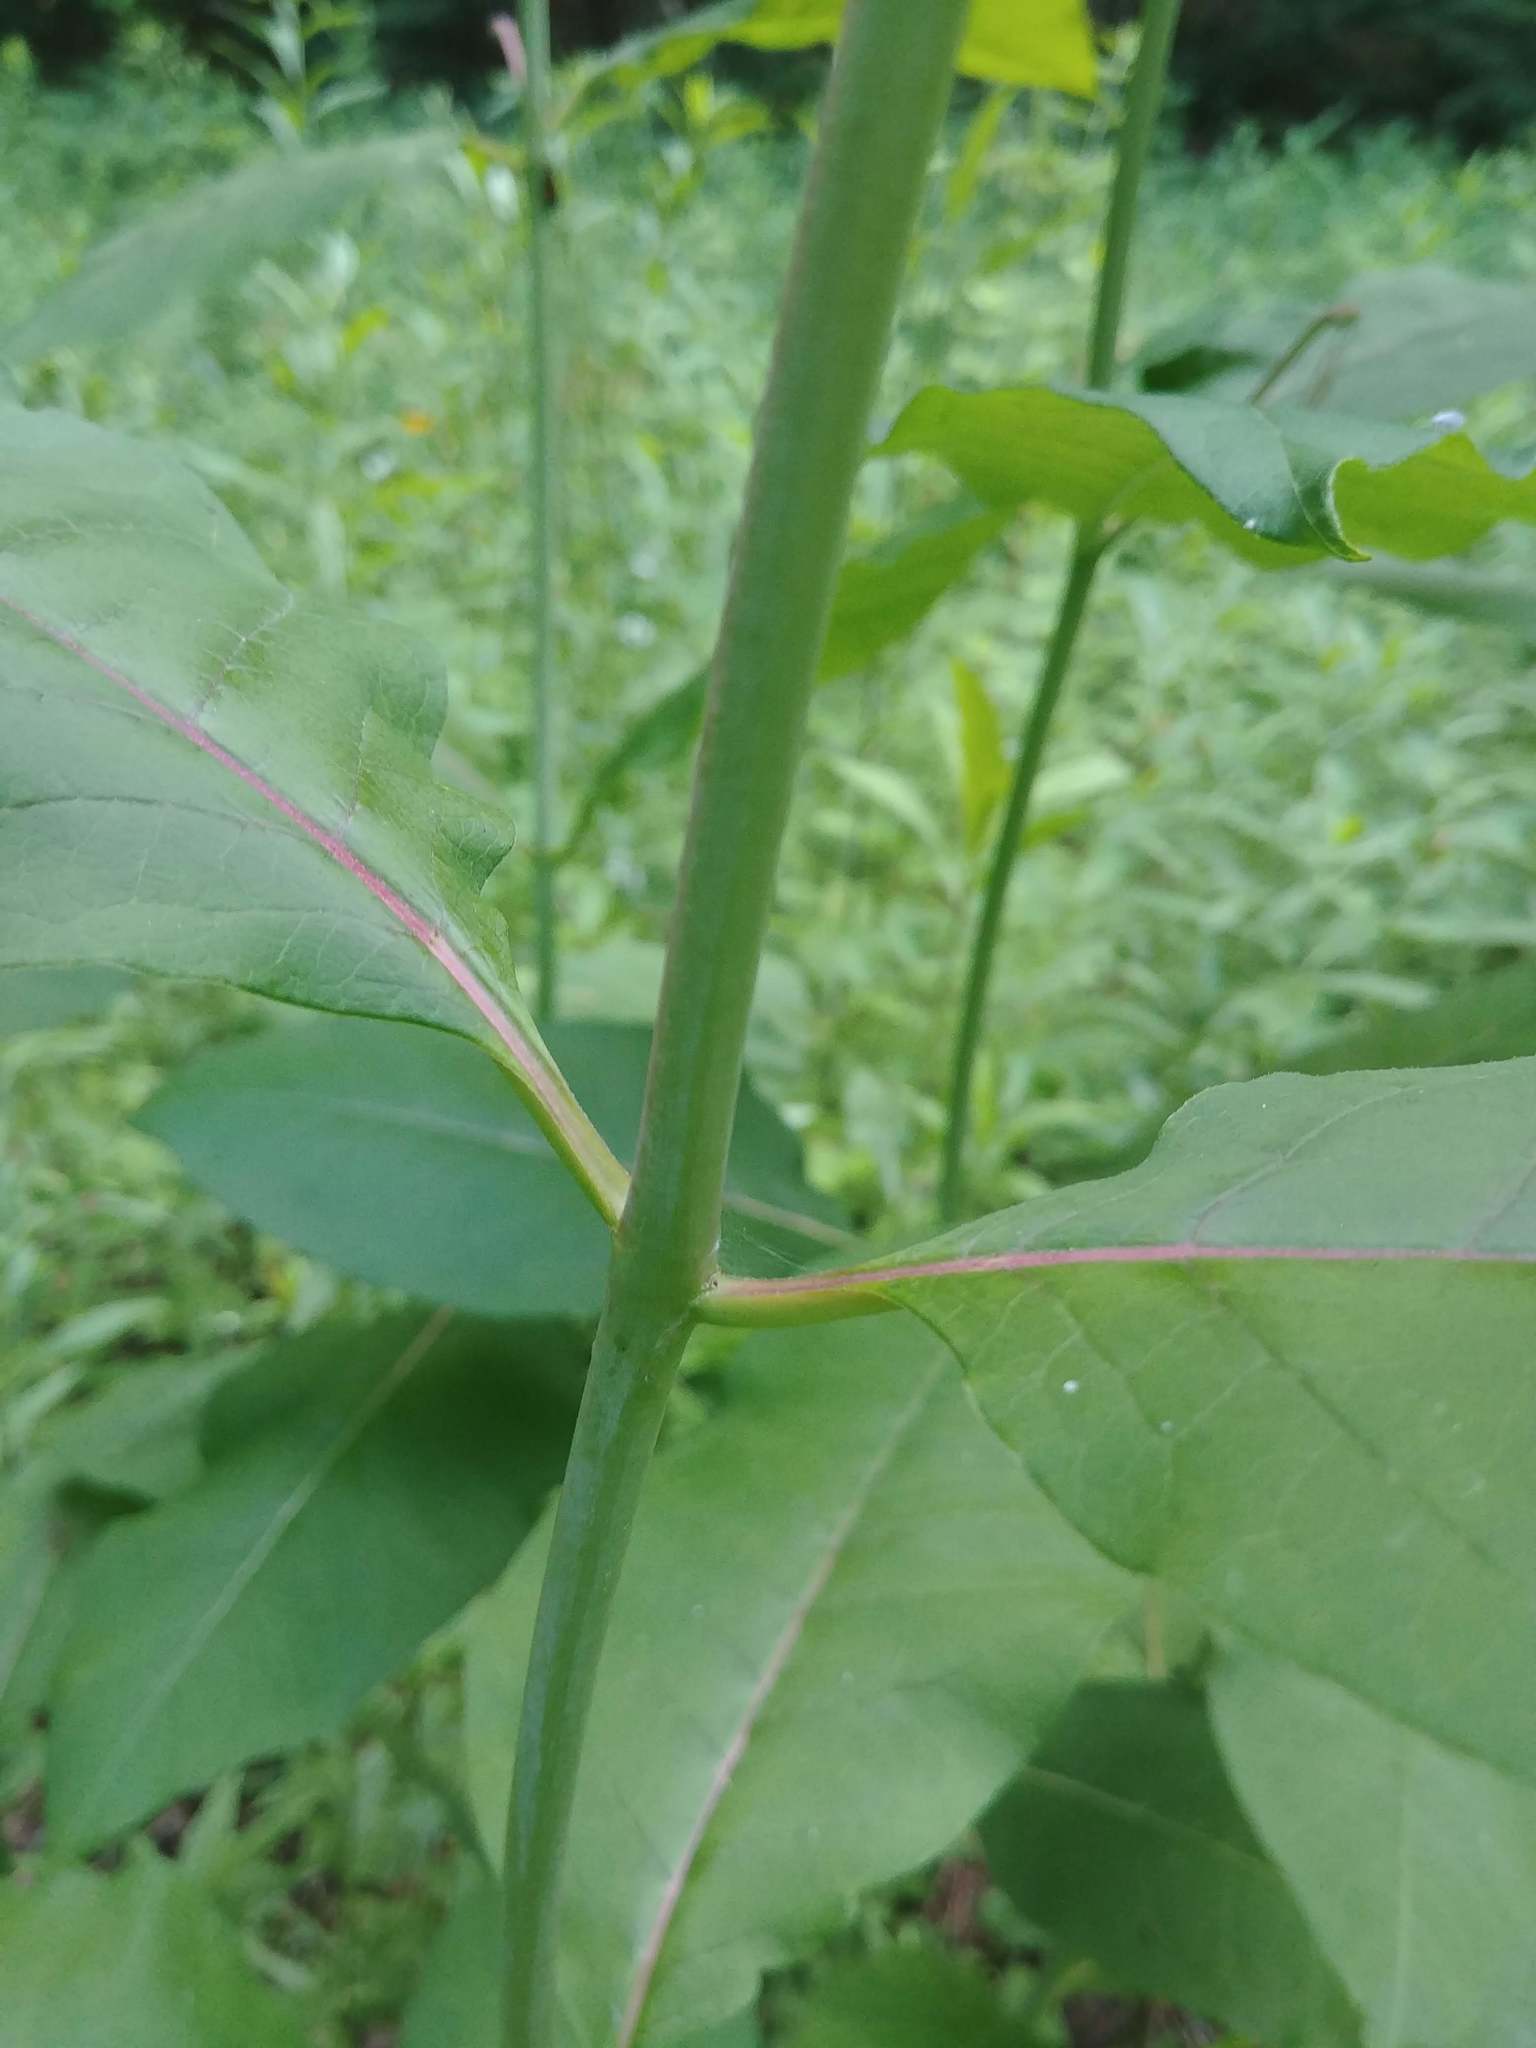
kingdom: Plantae
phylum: Tracheophyta
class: Magnoliopsida
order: Gentianales
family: Apocynaceae
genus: Asclepias
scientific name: Asclepias exaltata
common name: Poke milkweed
